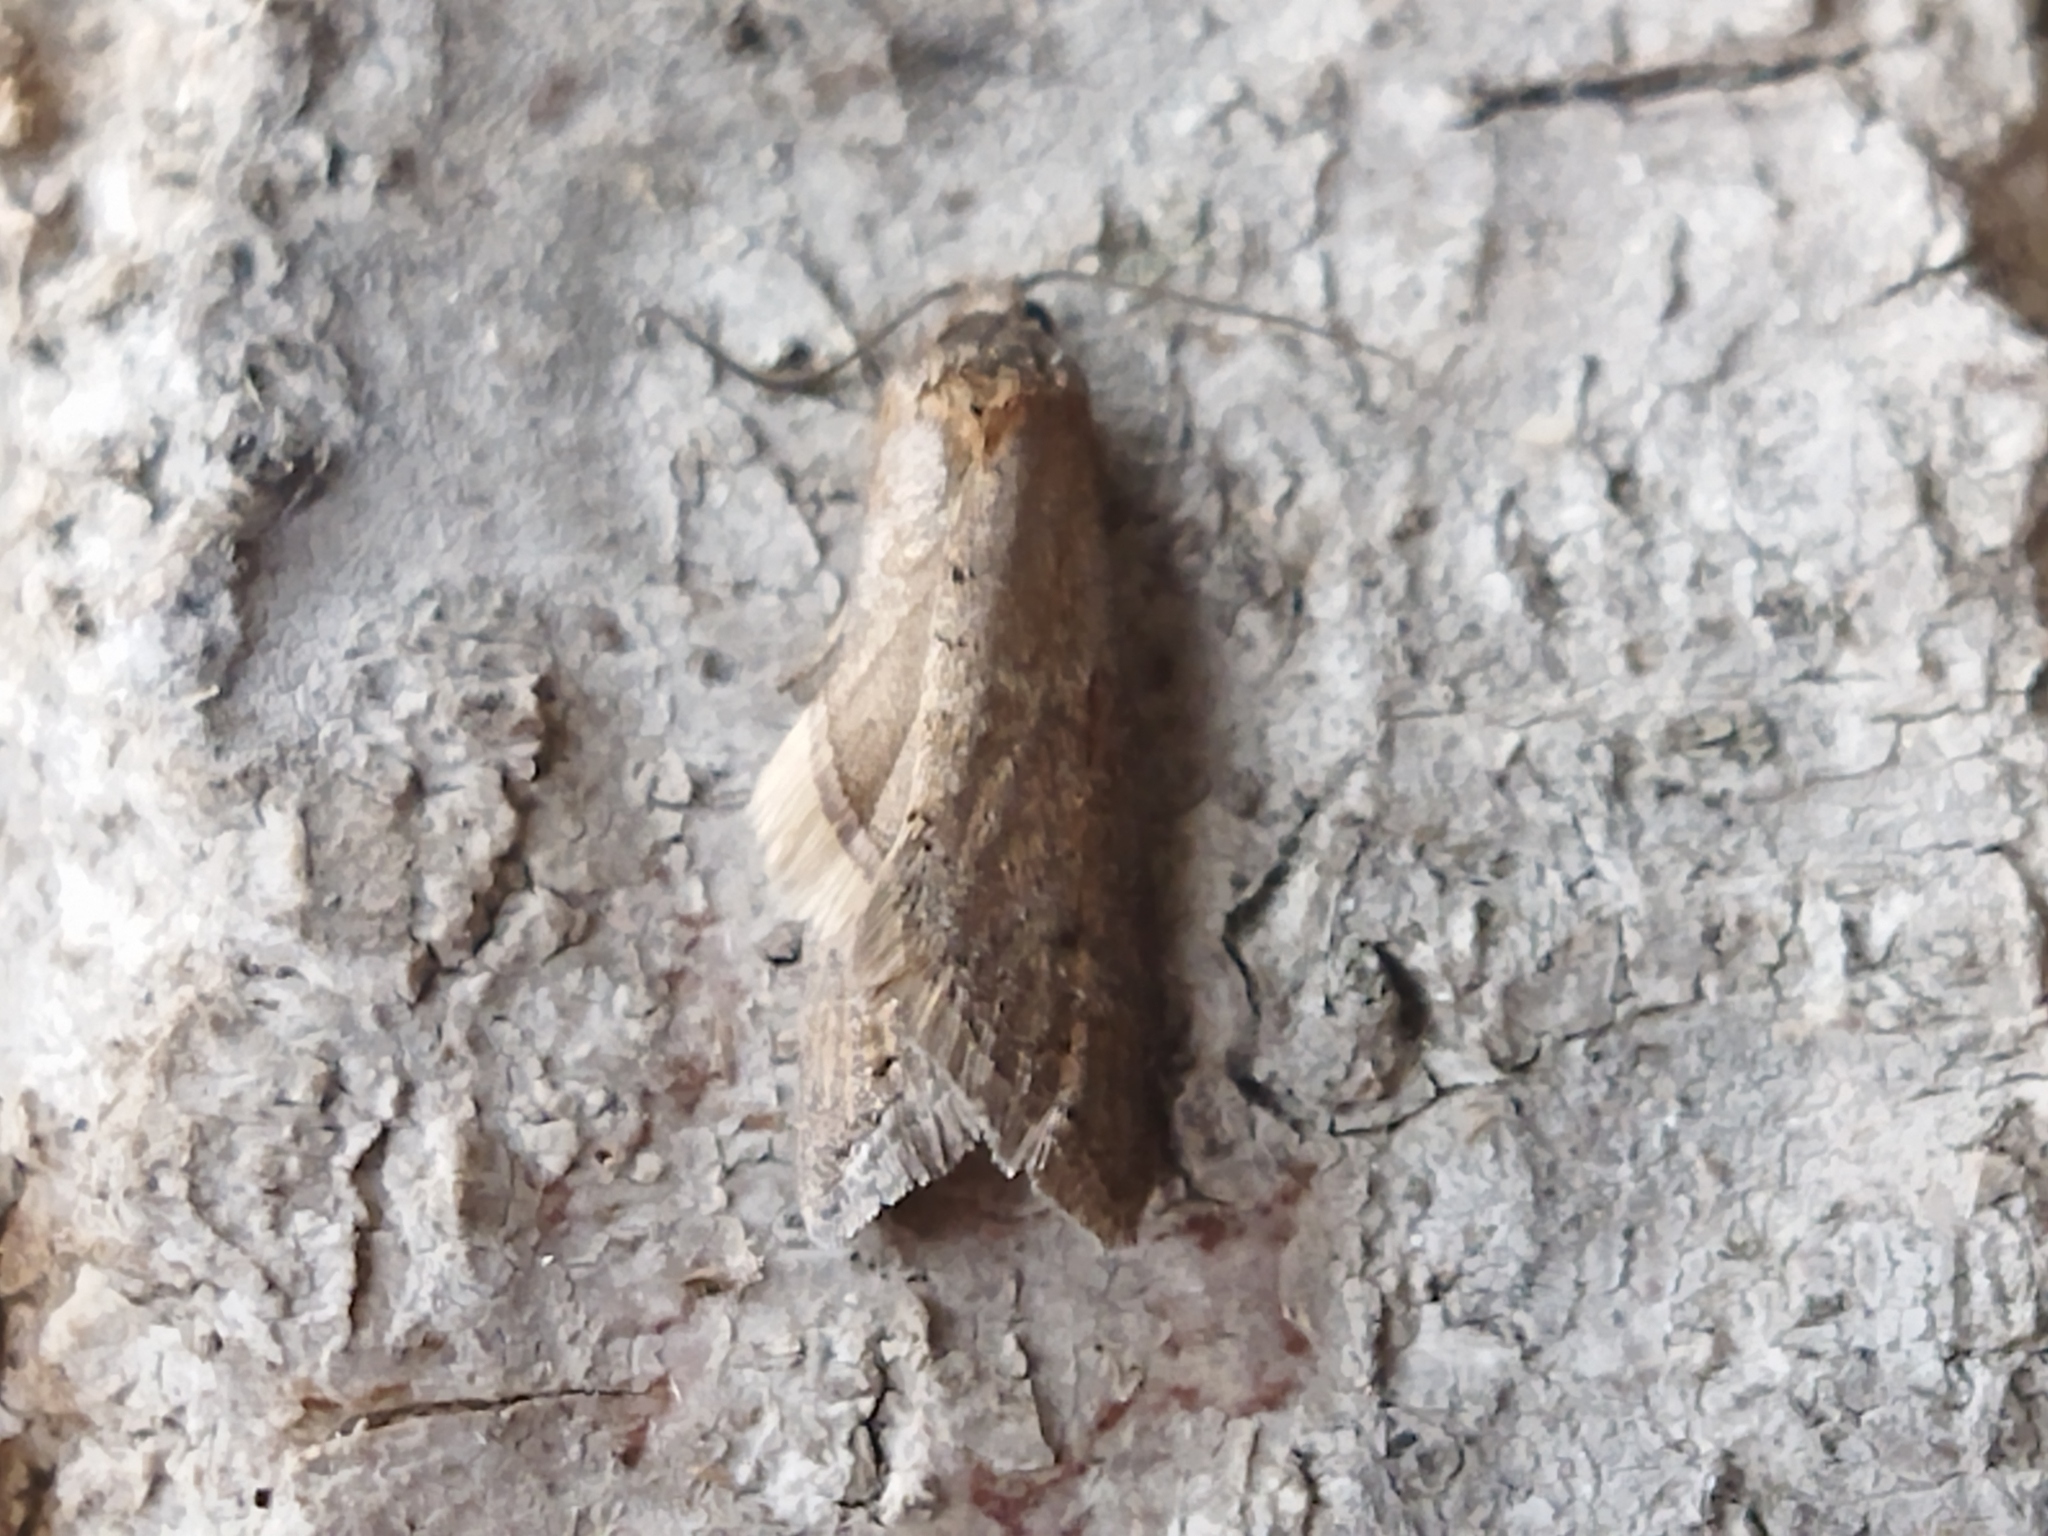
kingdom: Animalia
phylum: Arthropoda
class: Insecta
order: Lepidoptera
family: Tortricidae
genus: Tortricodes
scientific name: Tortricodes alternella
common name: Winter shade
